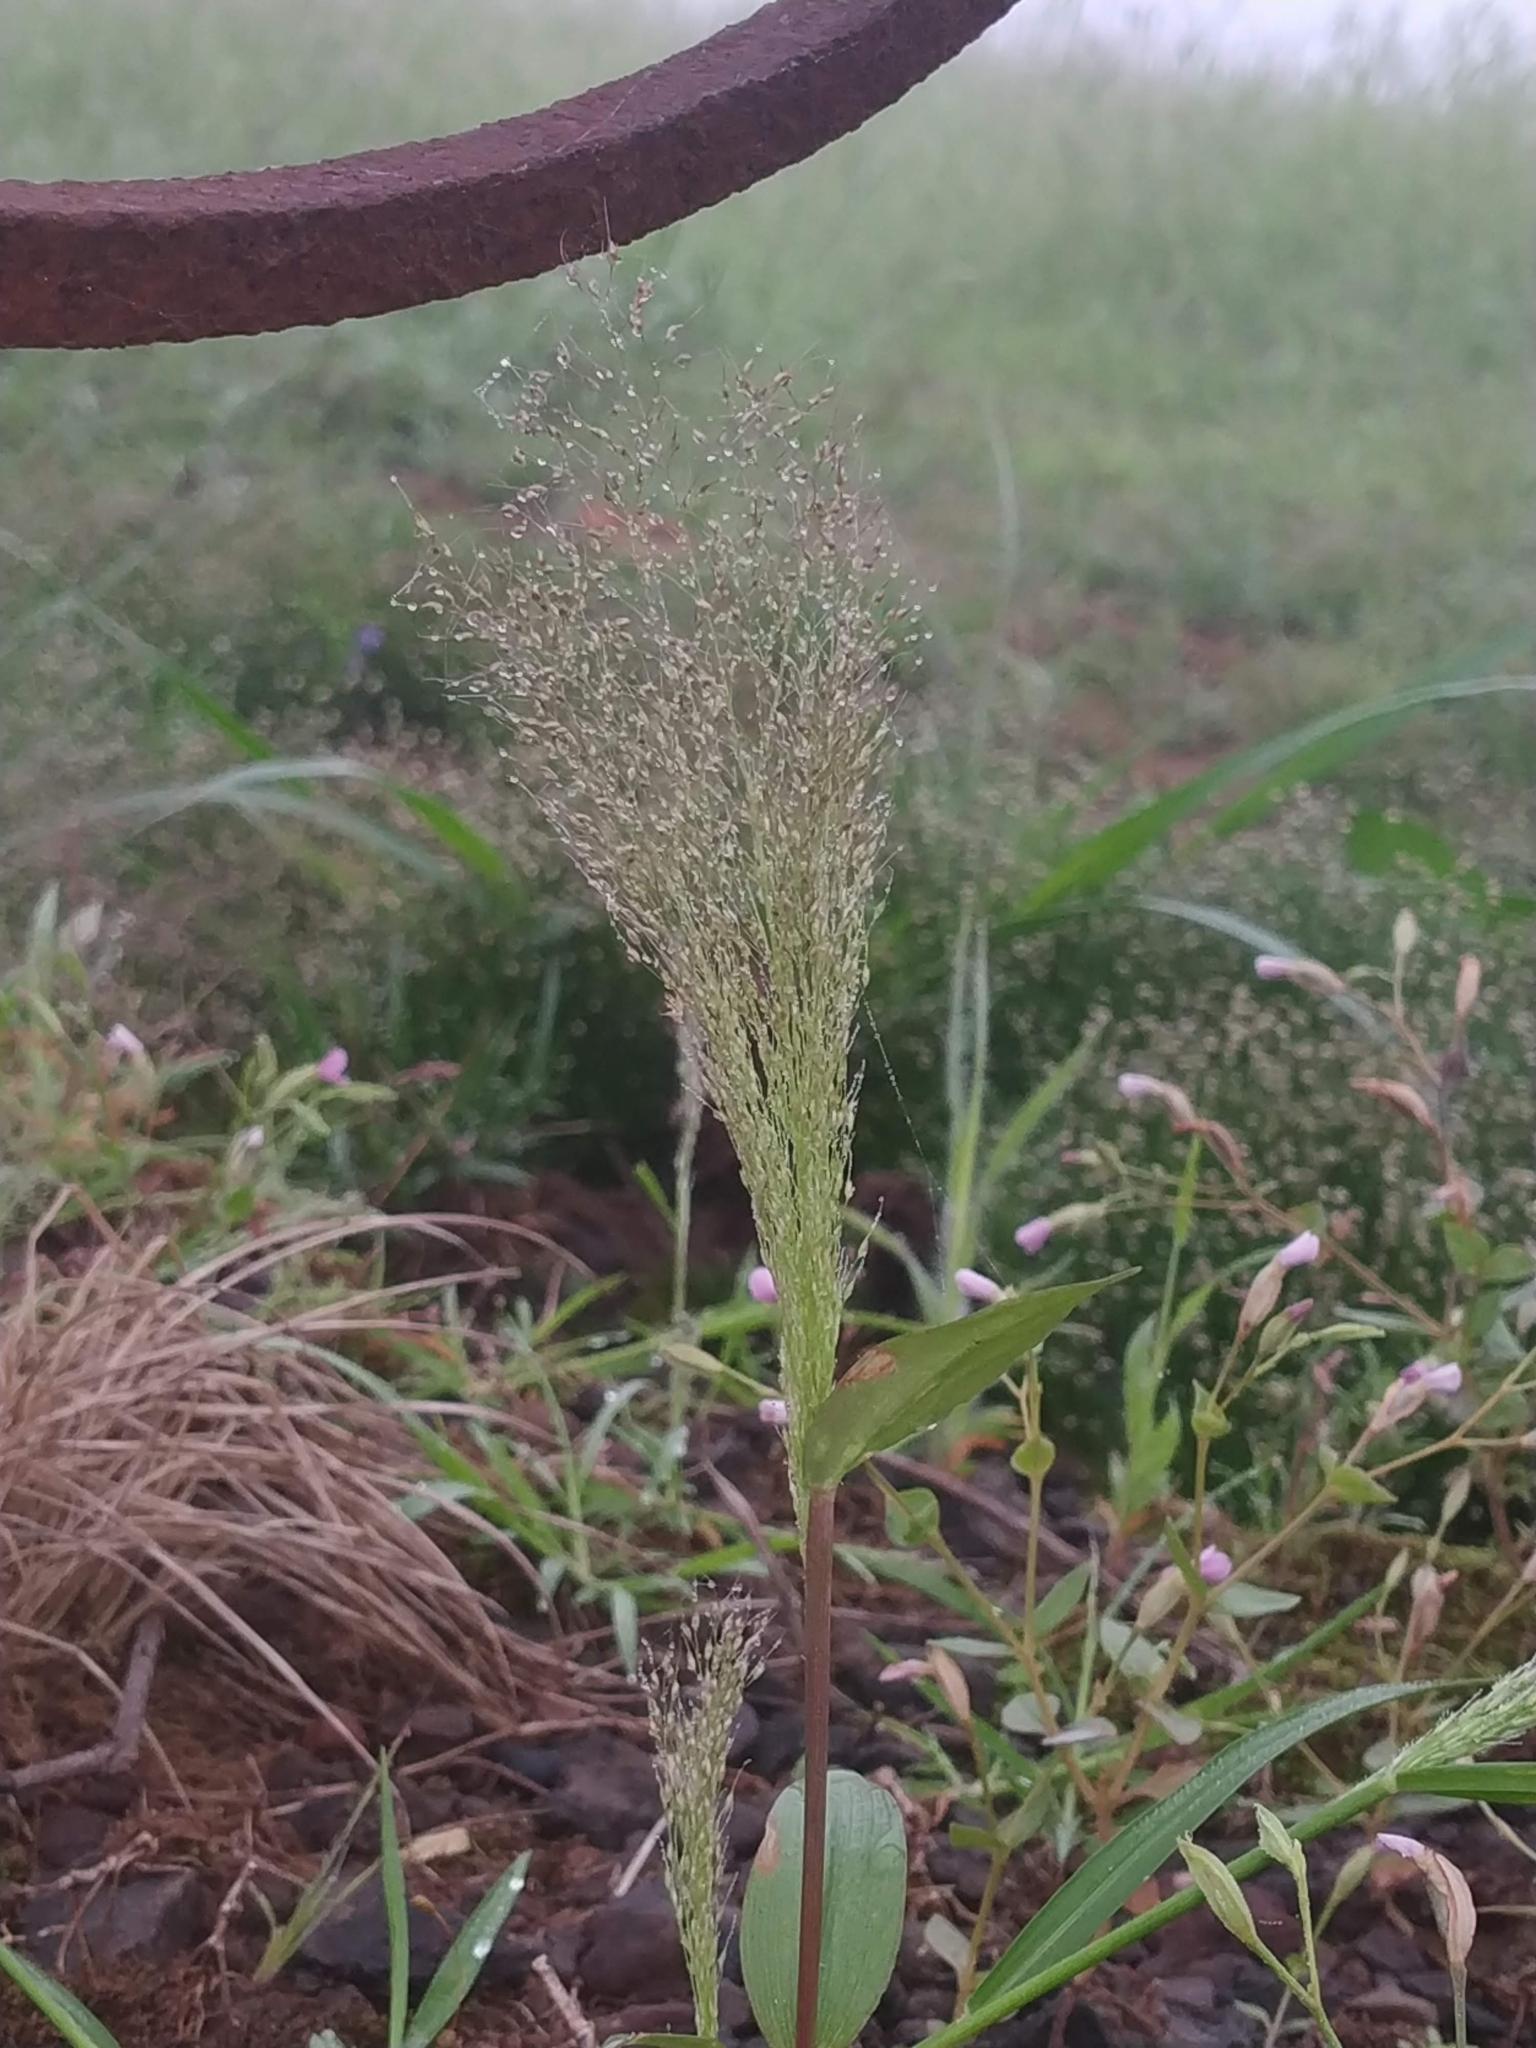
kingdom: Plantae
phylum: Tracheophyta
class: Liliopsida
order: Poales
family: Poaceae
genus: Arundinella
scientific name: Arundinella pumila
